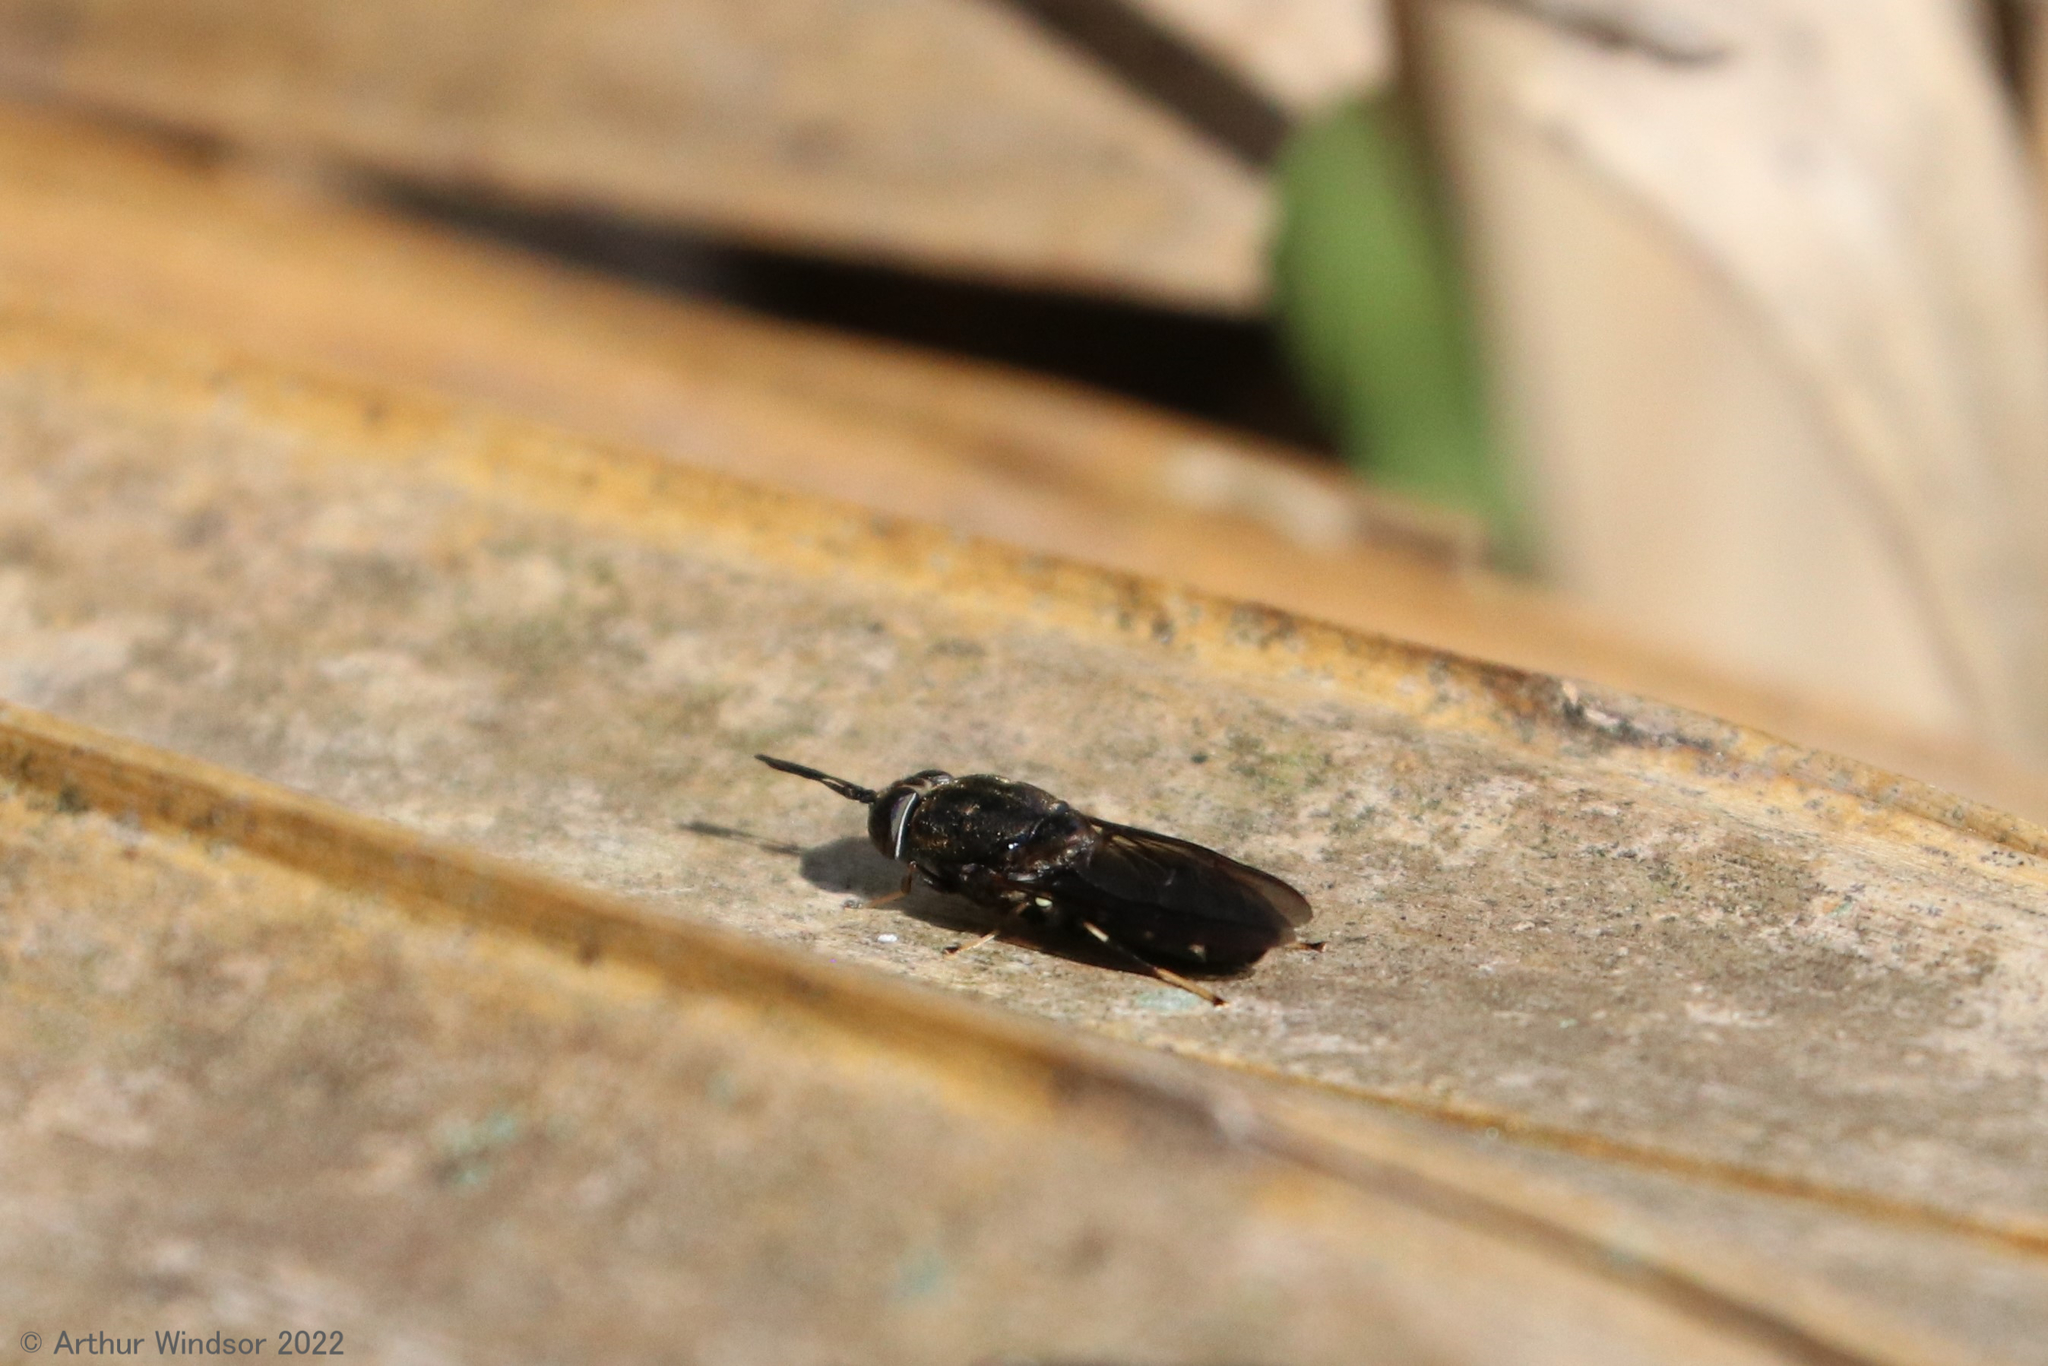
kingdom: Animalia
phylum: Arthropoda
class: Insecta
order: Diptera
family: Stratiomyidae
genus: Hermetia
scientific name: Hermetia sexmaculata
